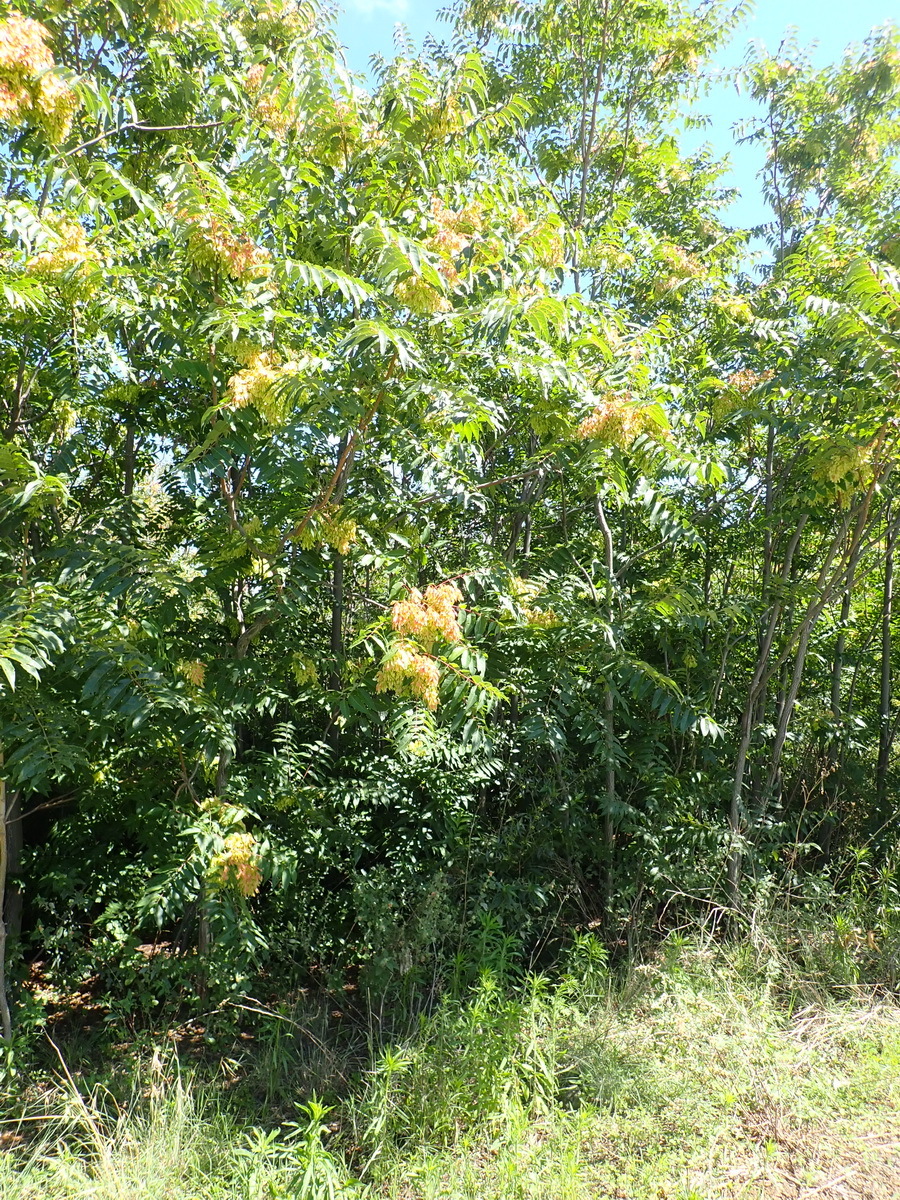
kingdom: Plantae
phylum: Tracheophyta
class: Magnoliopsida
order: Sapindales
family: Simaroubaceae
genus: Ailanthus
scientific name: Ailanthus altissima
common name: Tree-of-heaven
